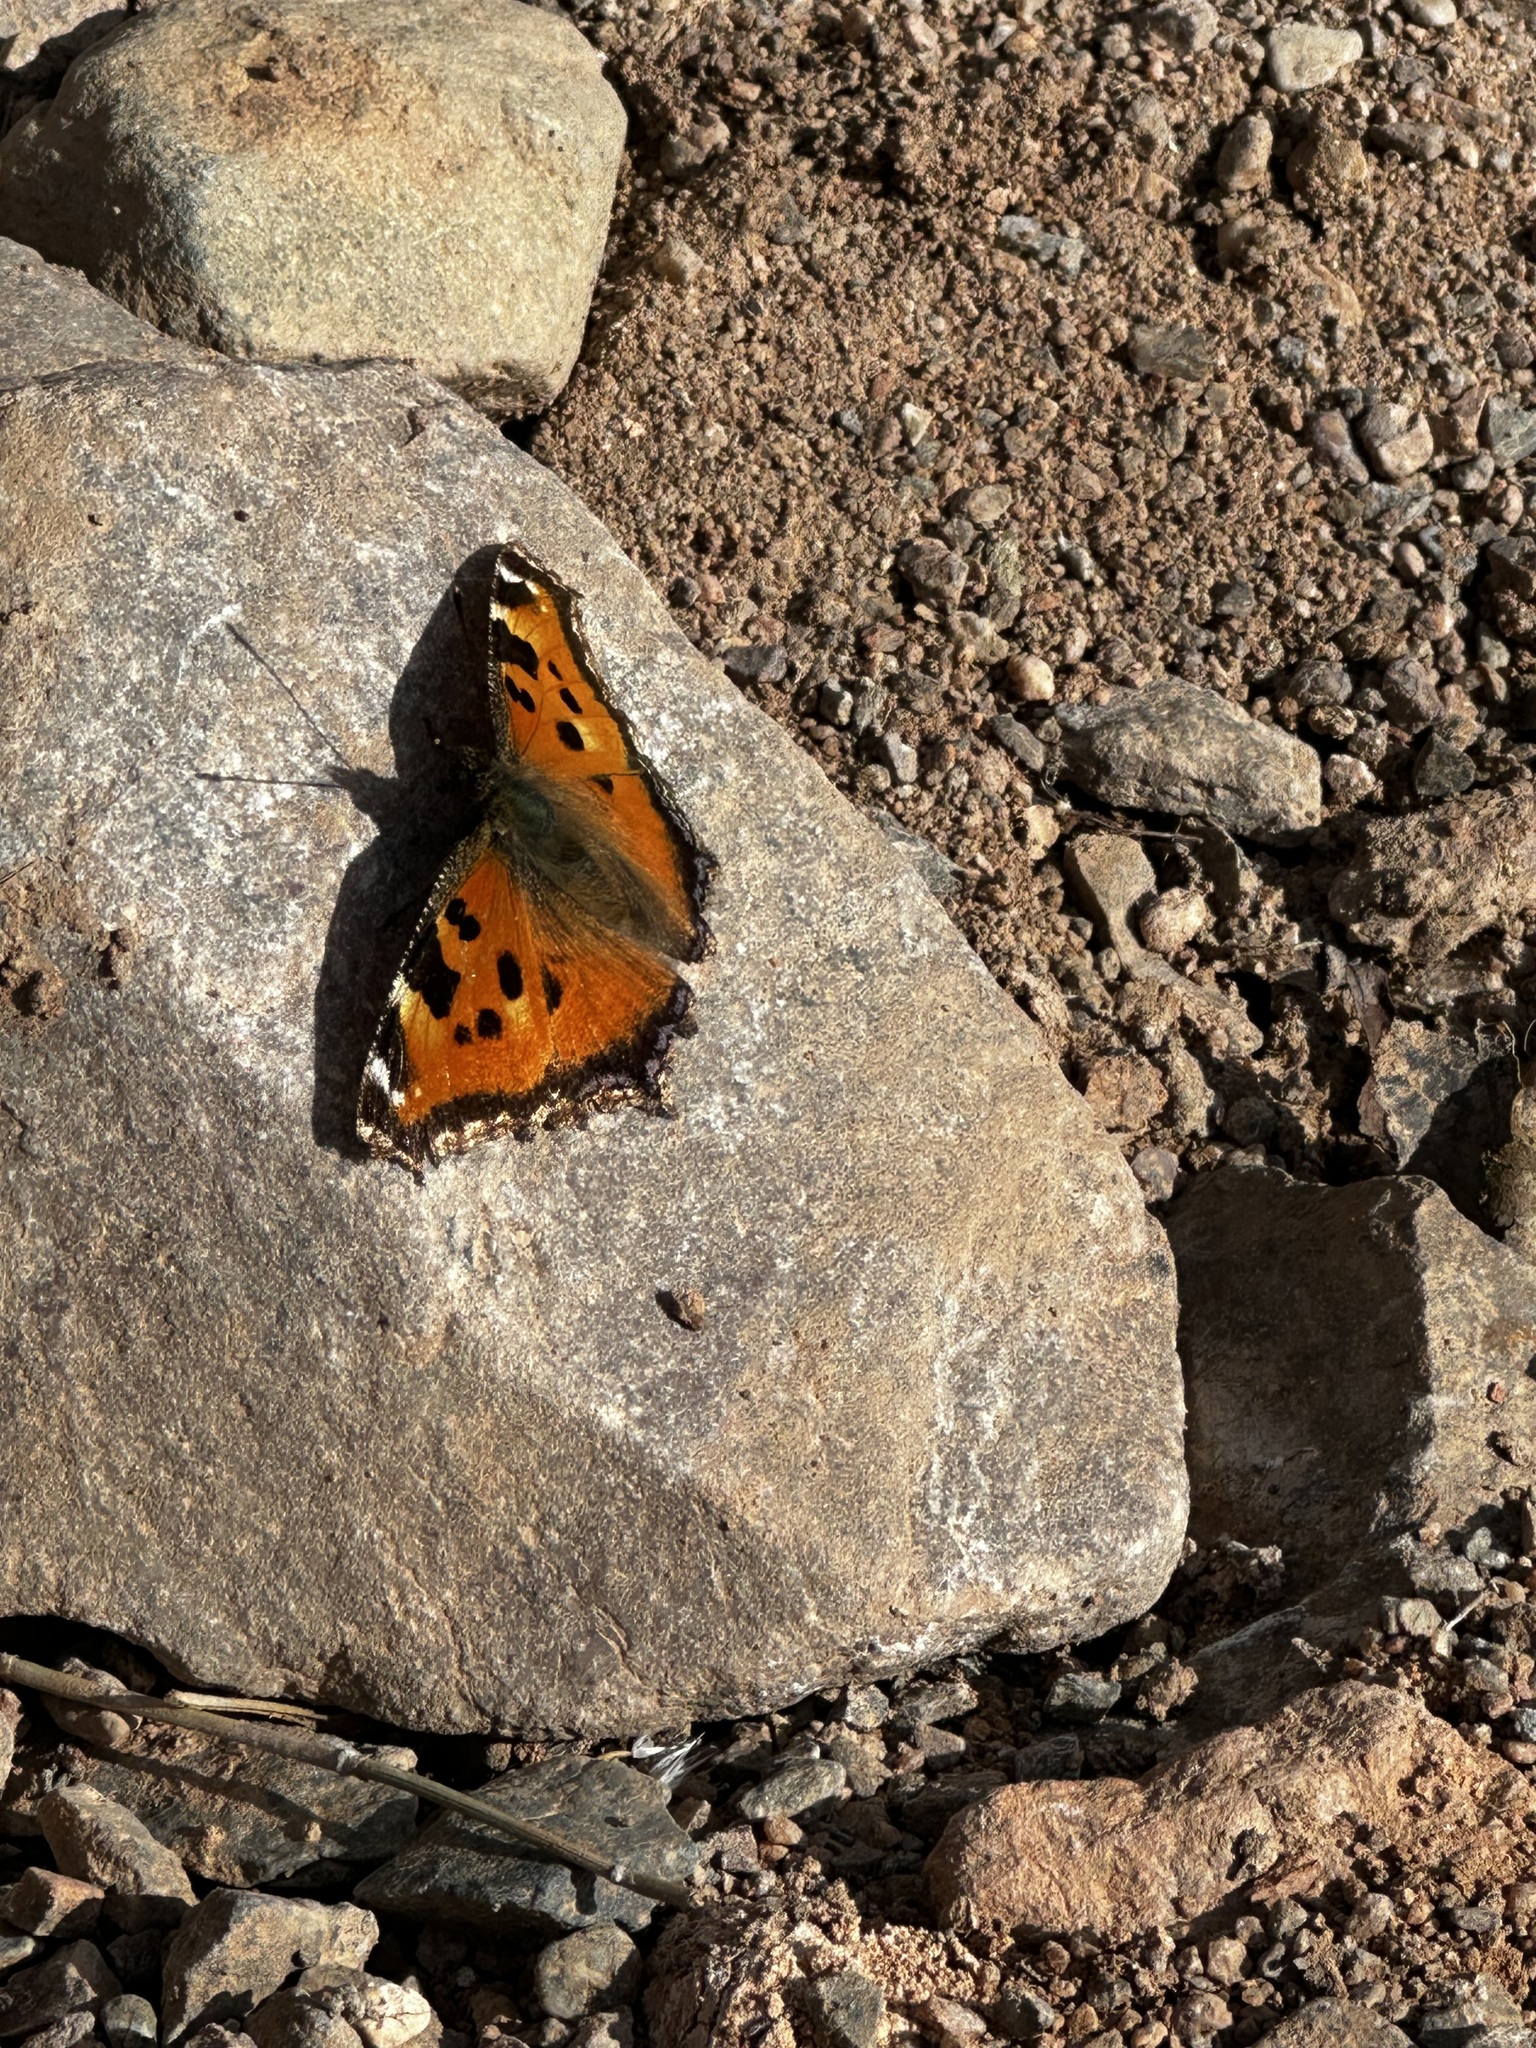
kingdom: Animalia
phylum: Arthropoda
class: Insecta
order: Lepidoptera
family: Nymphalidae
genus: Nymphalis
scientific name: Nymphalis xanthomelas
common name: Scarce tortoiseshell
